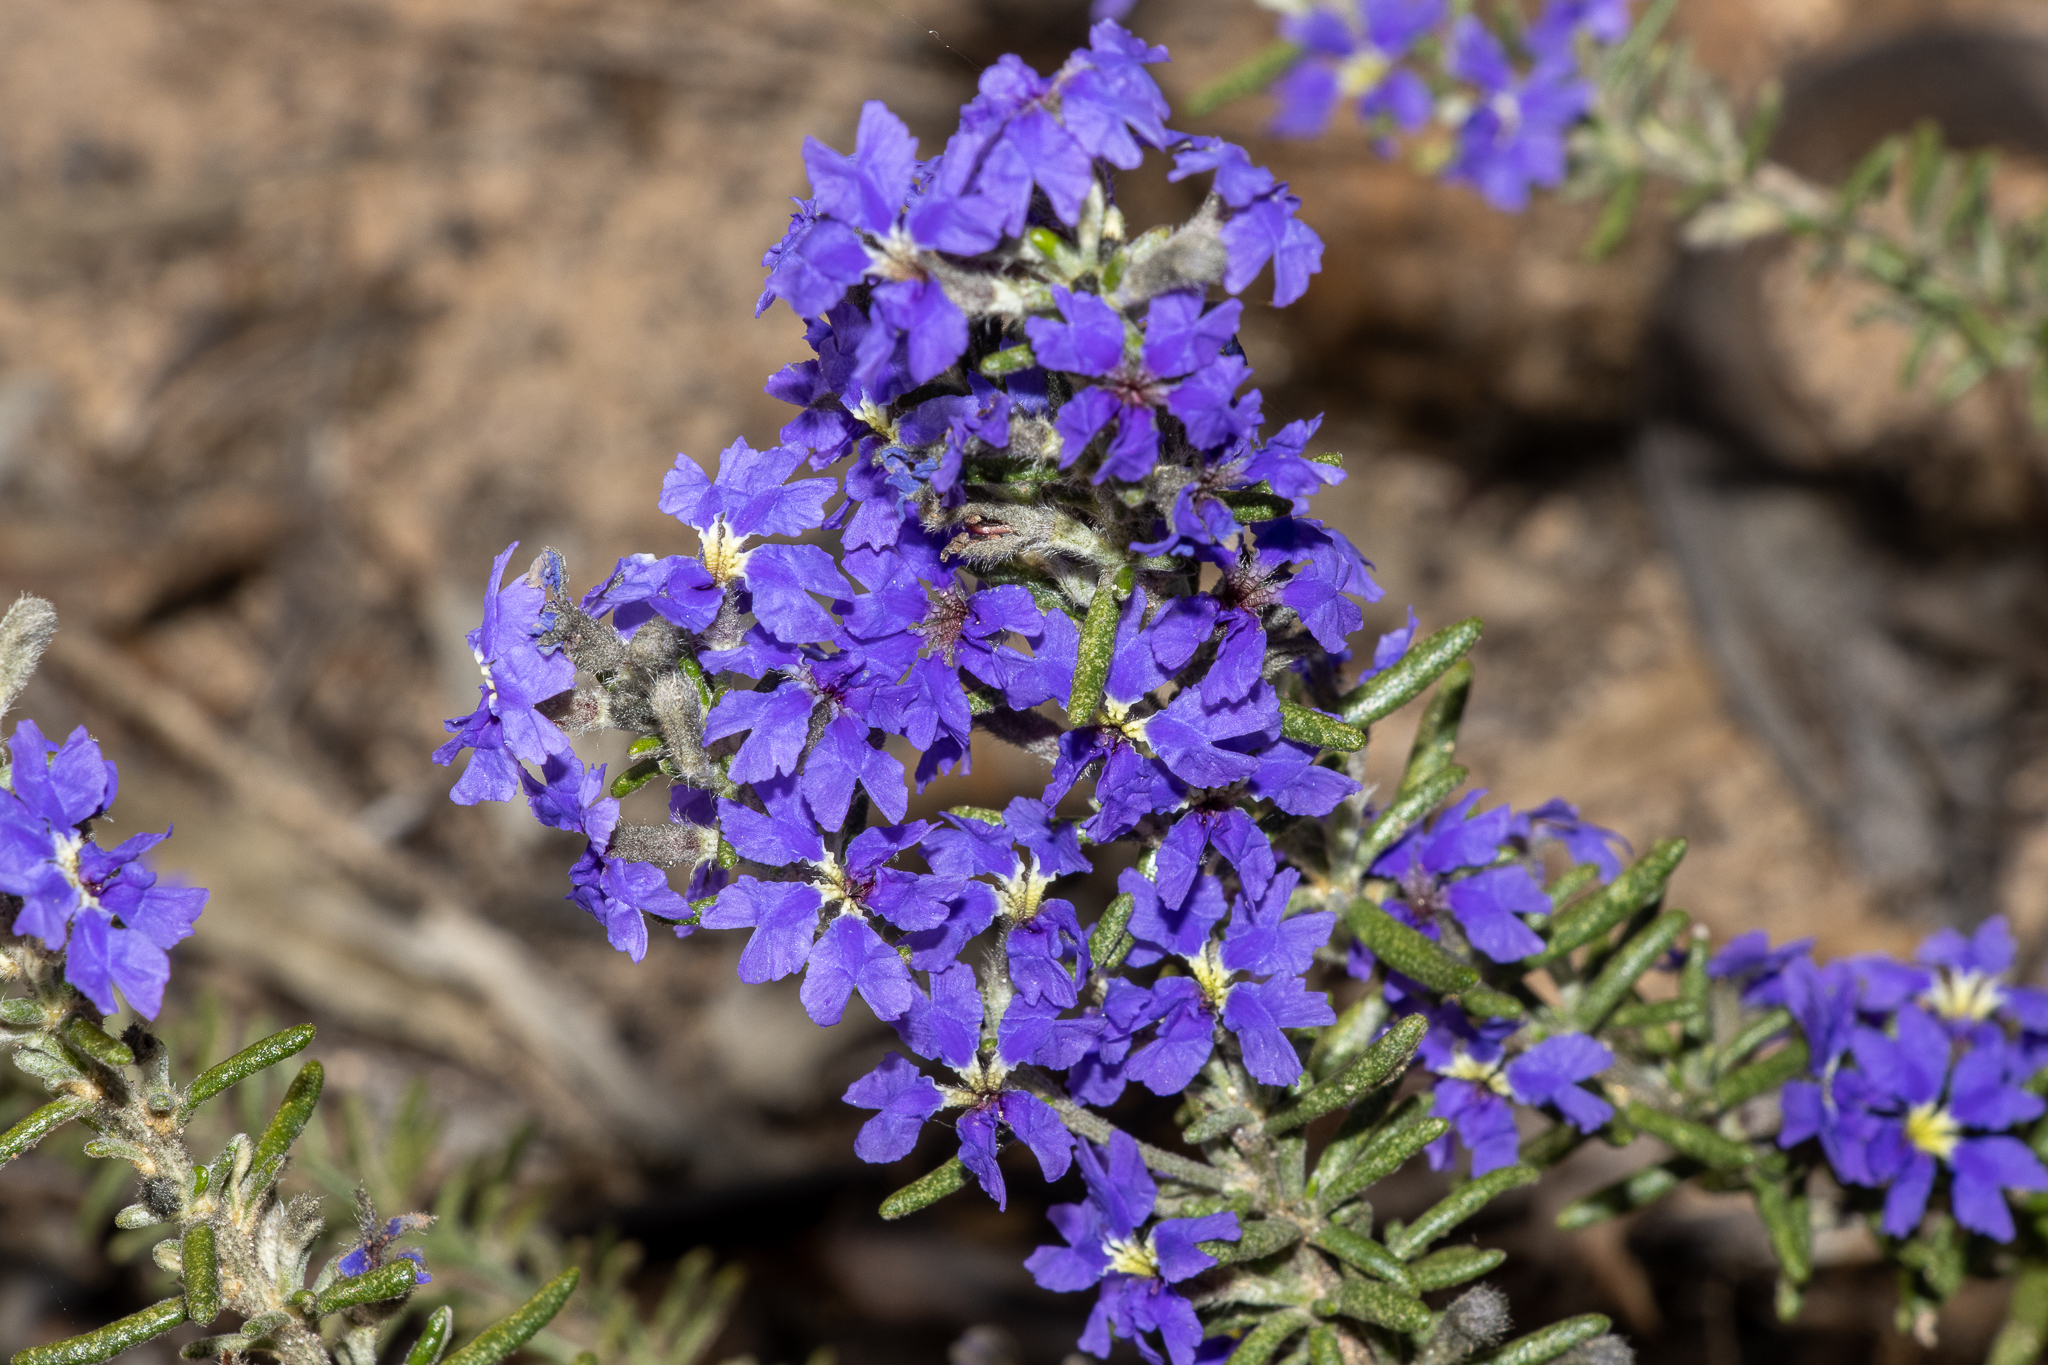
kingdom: Plantae
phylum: Tracheophyta
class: Magnoliopsida
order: Asterales
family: Goodeniaceae
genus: Dampiera
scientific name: Dampiera rosmarinifolia
